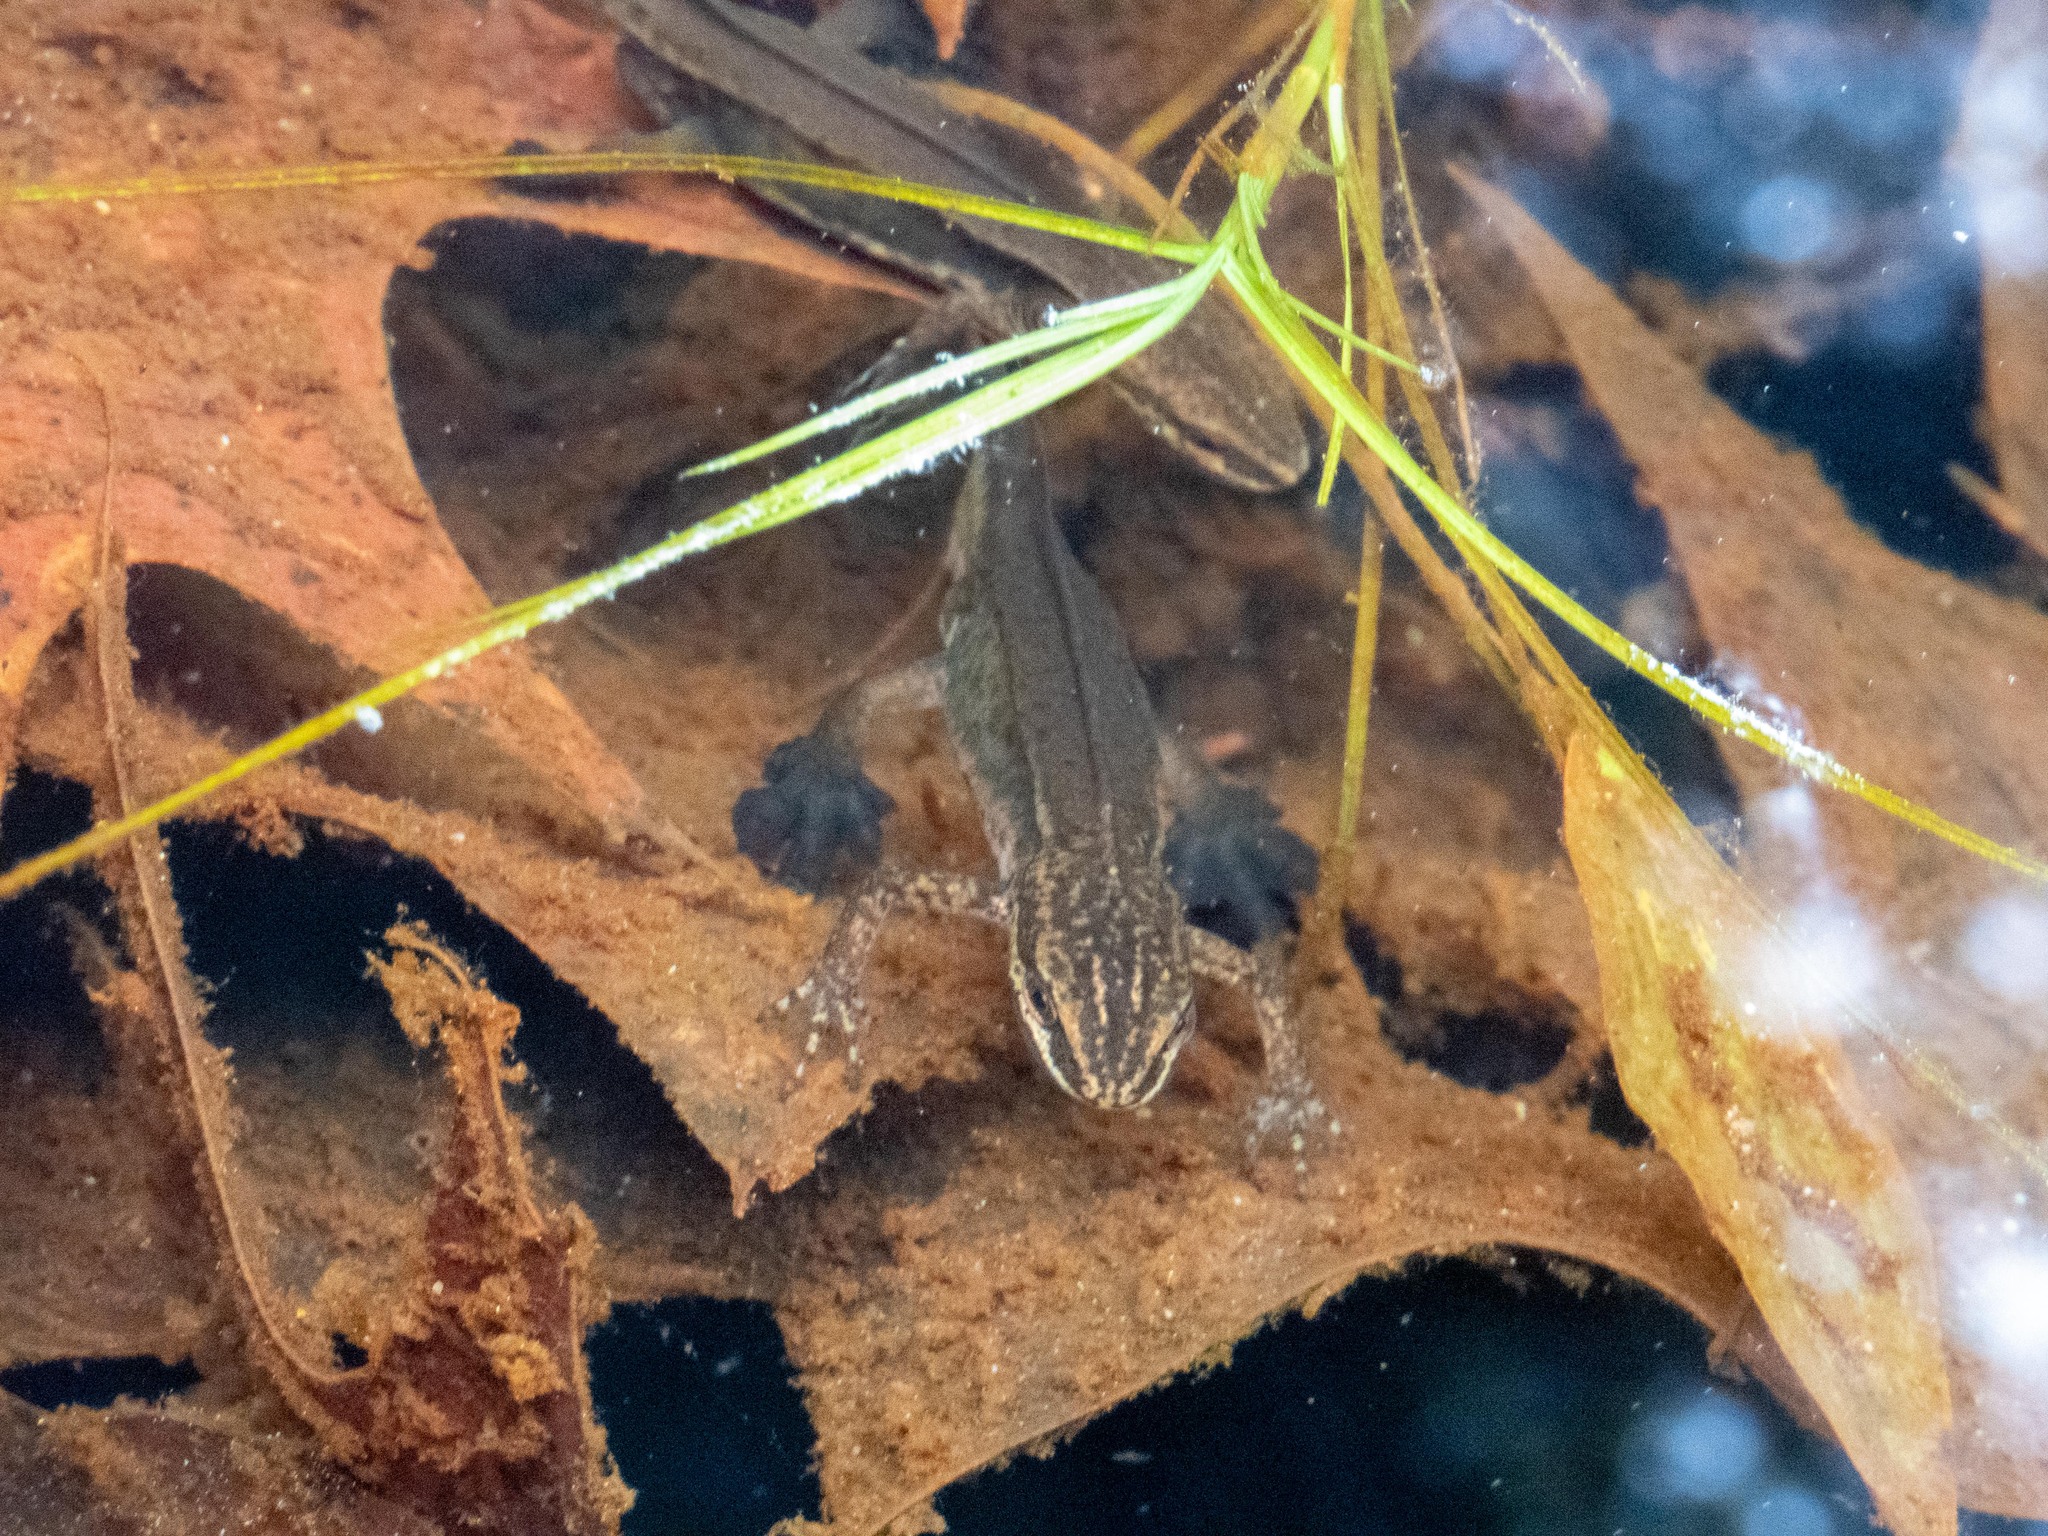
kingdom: Animalia
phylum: Chordata
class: Amphibia
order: Caudata
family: Salamandridae
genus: Lissotriton
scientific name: Lissotriton helveticus
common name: Palmate newt
